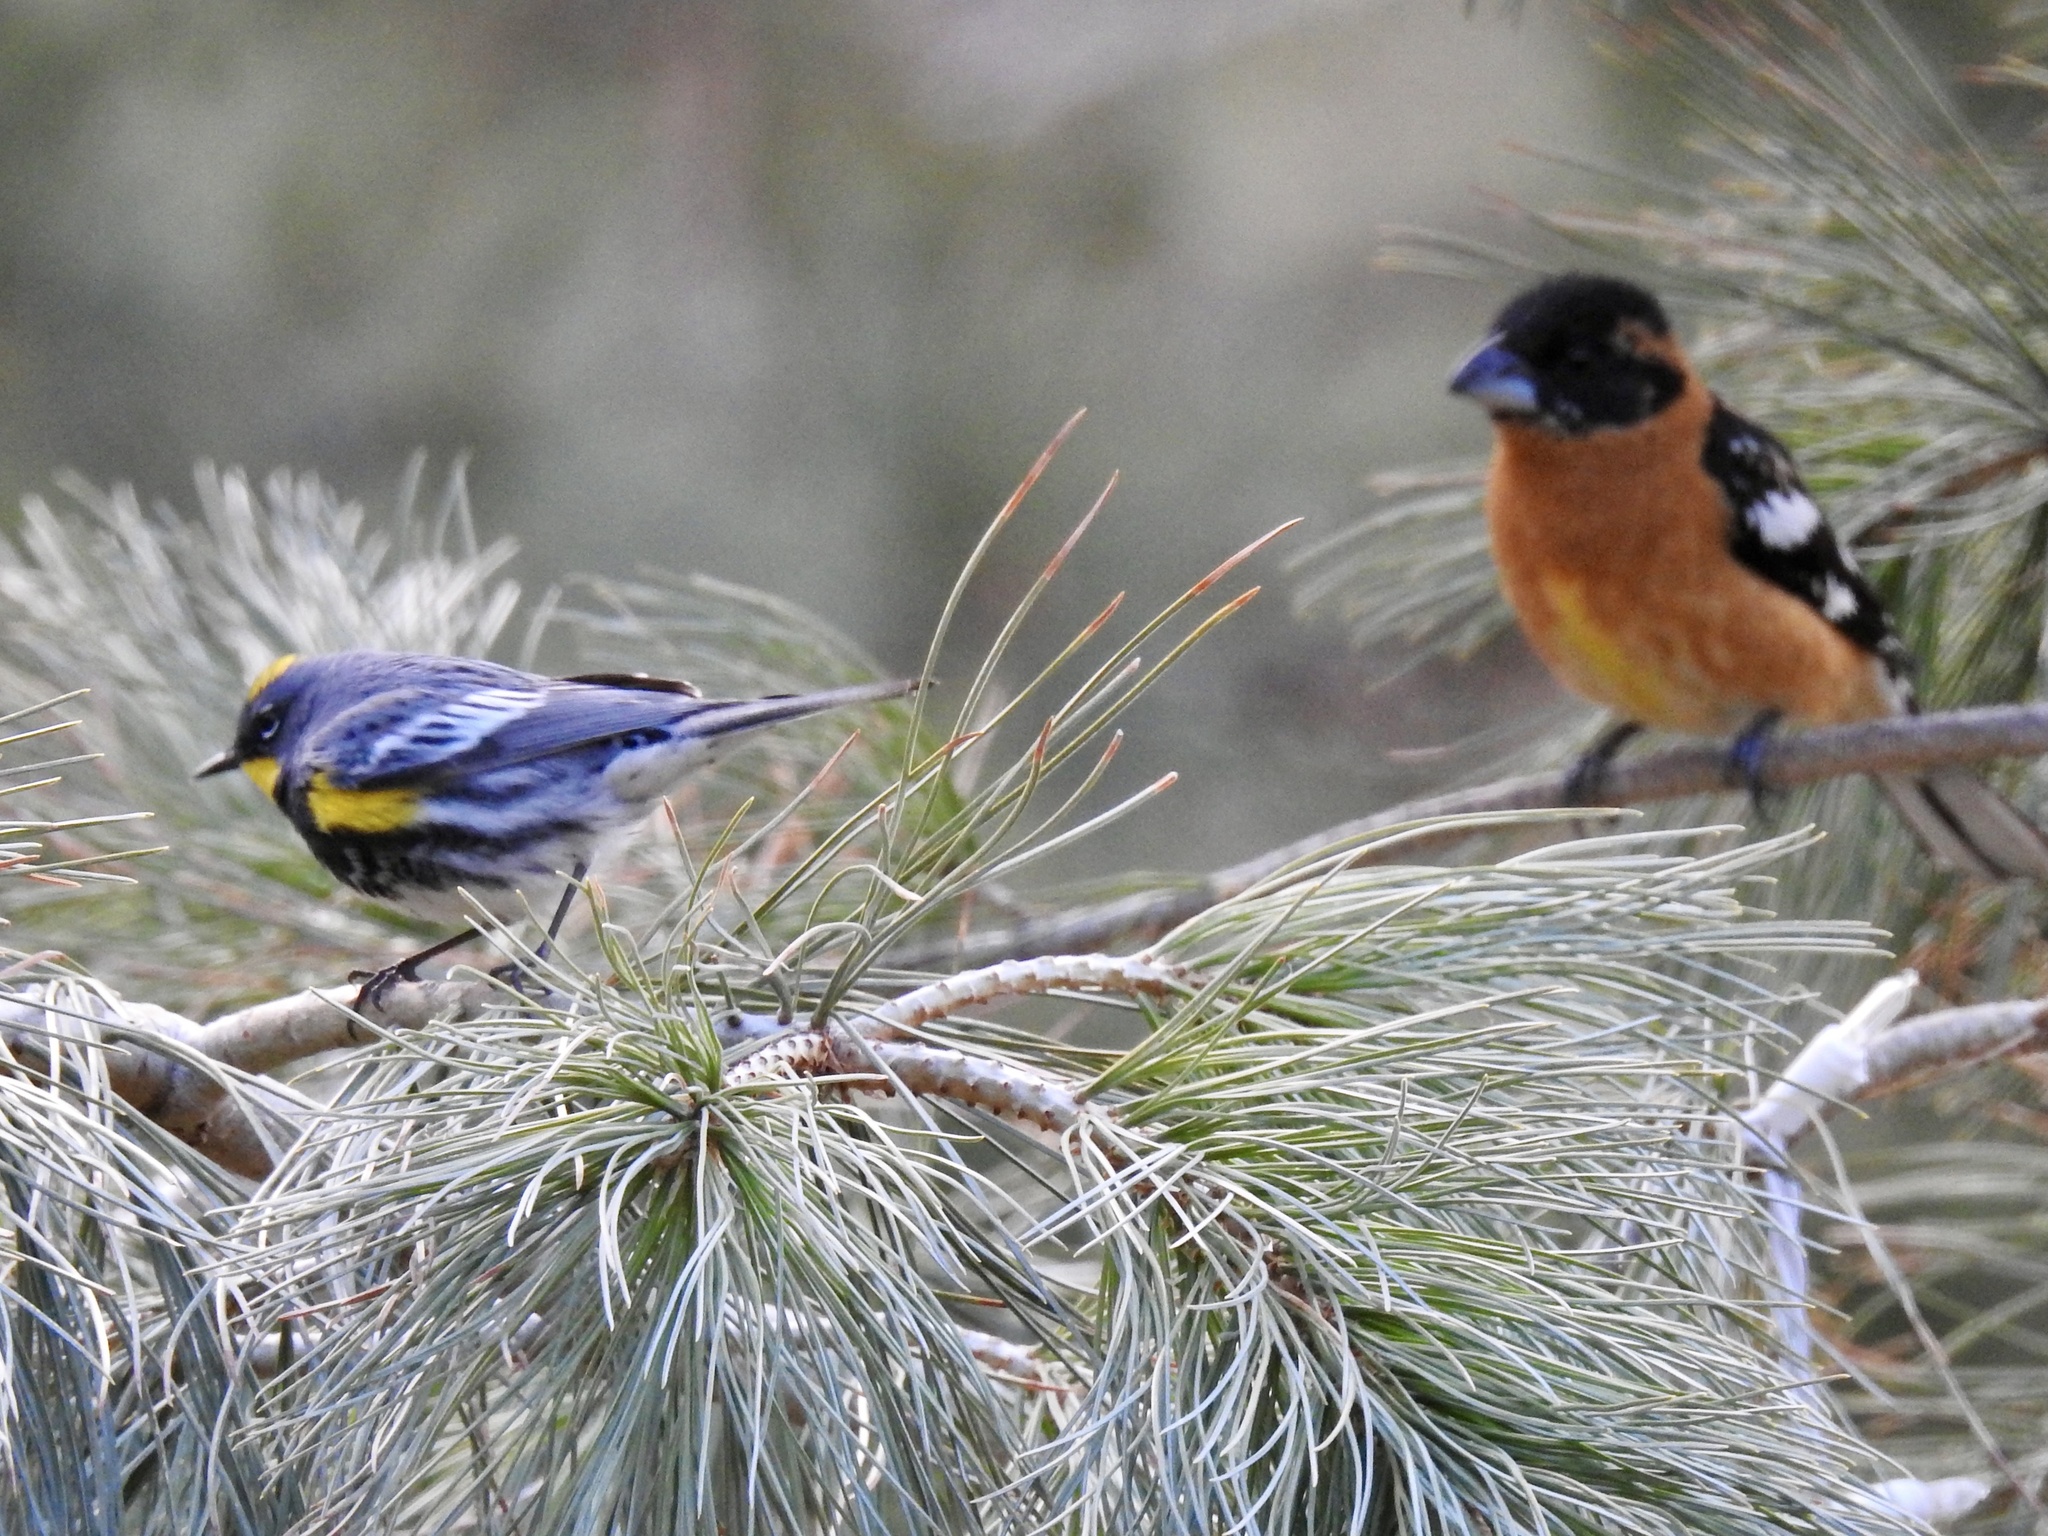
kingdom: Animalia
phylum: Chordata
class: Aves
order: Passeriformes
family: Cardinalidae
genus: Pheucticus
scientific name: Pheucticus melanocephalus
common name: Black-headed grosbeak
